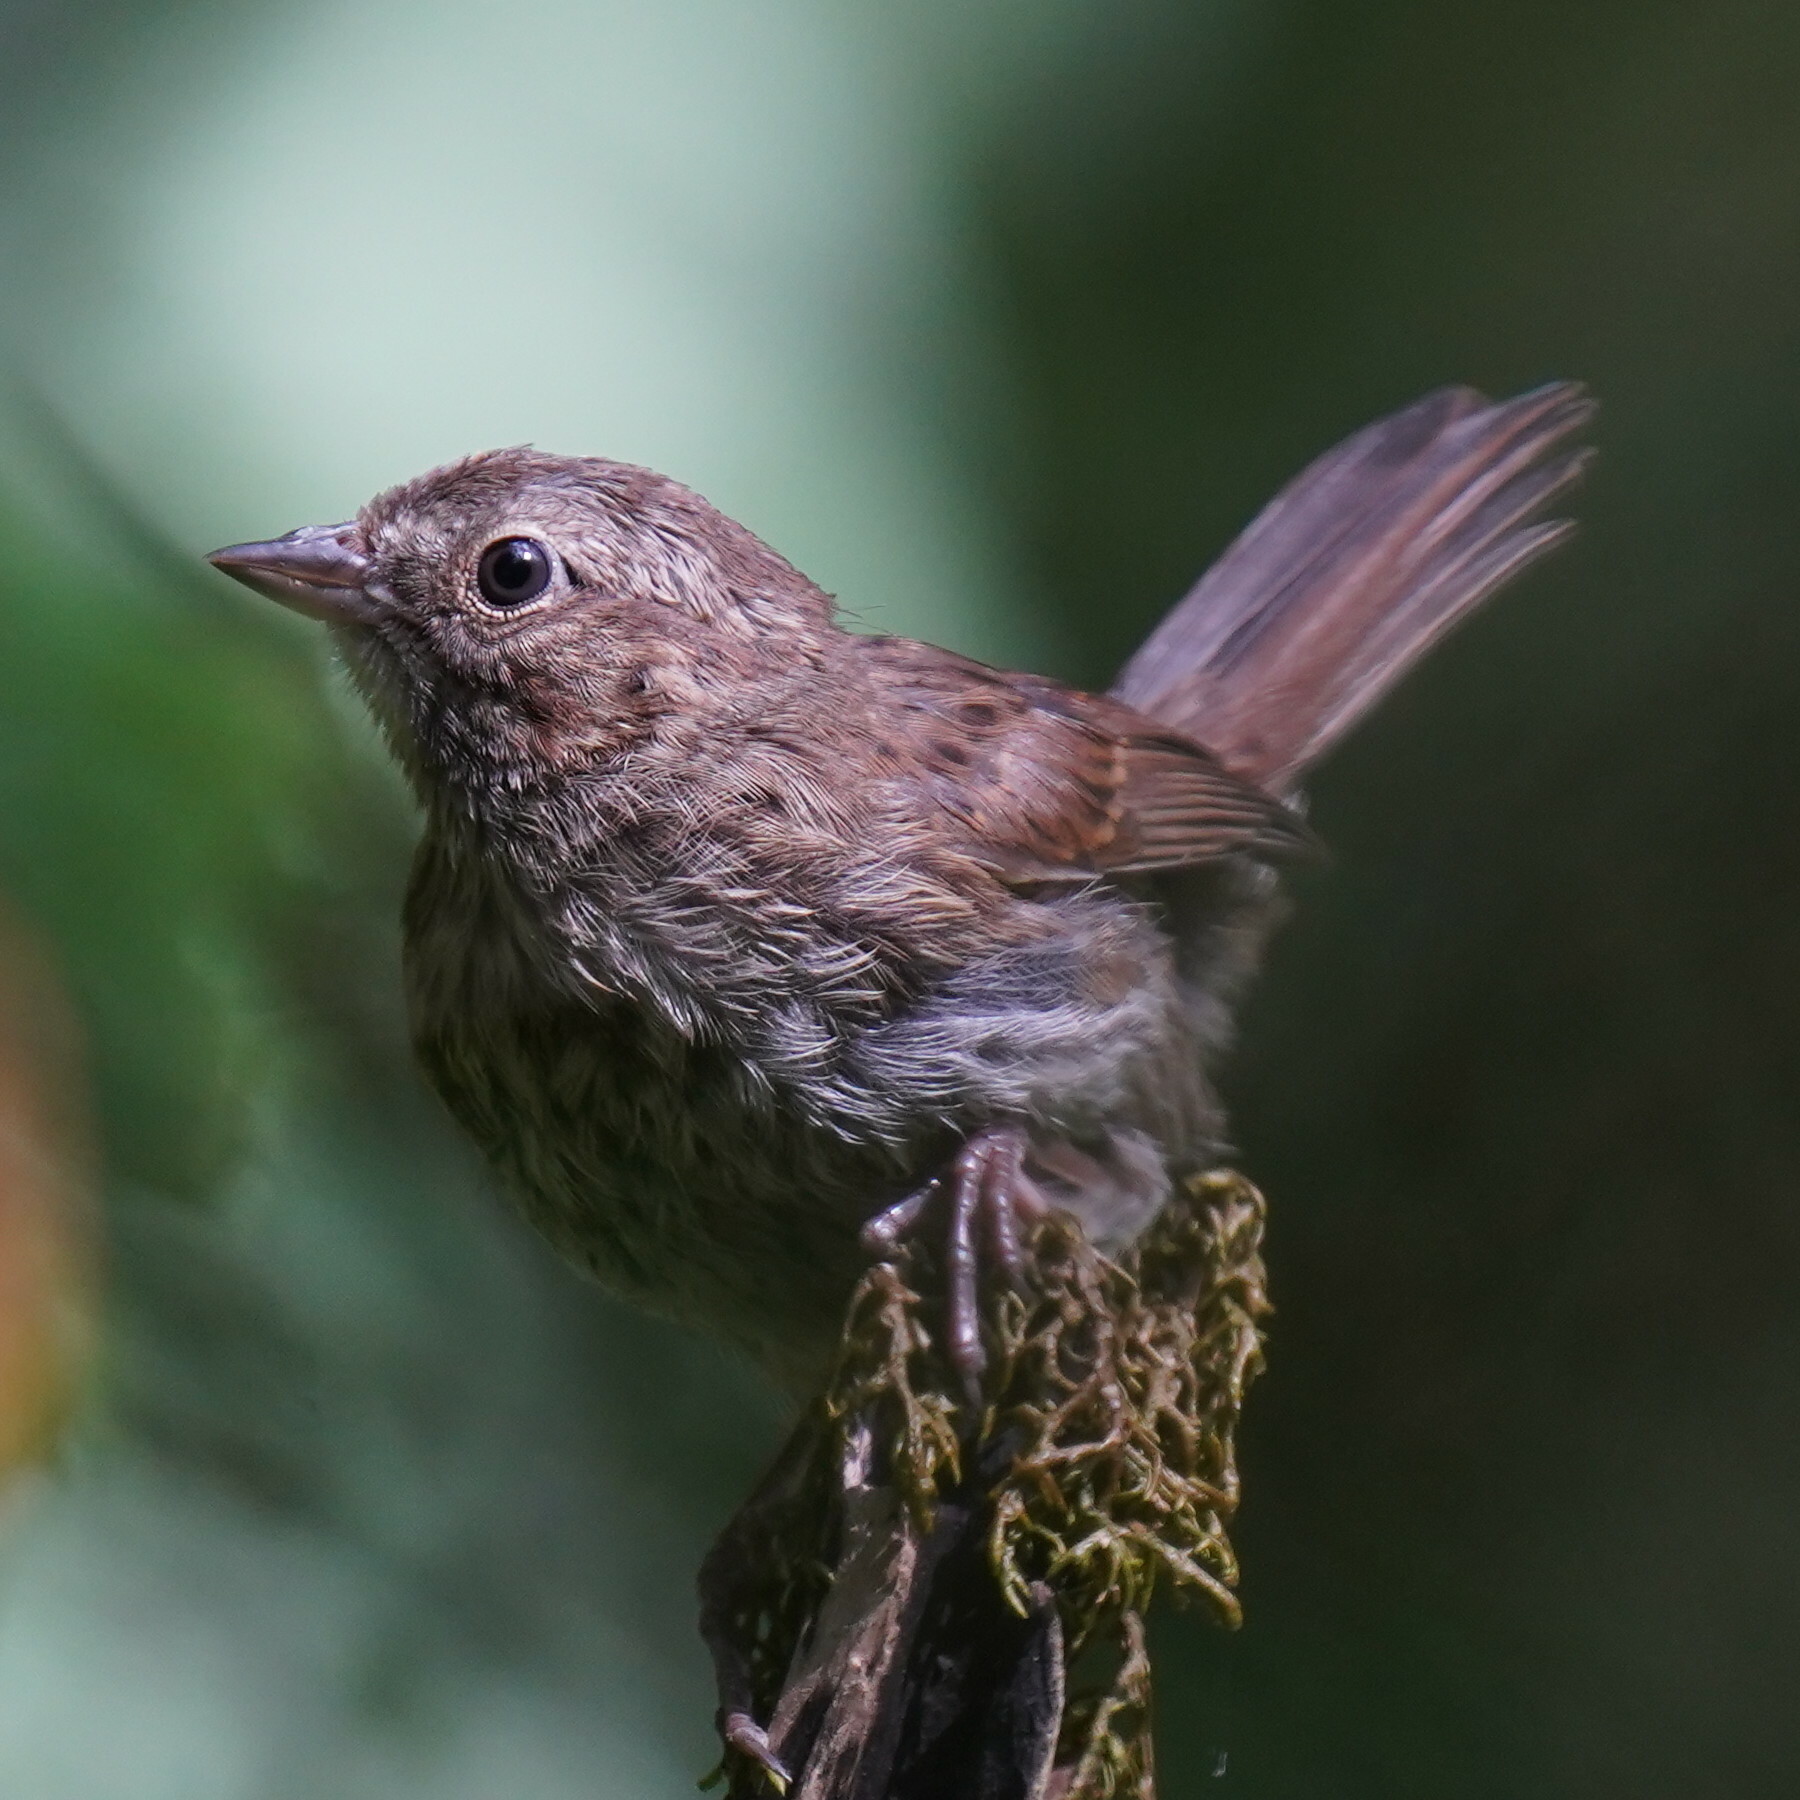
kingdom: Animalia
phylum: Chordata
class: Aves
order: Passeriformes
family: Passerellidae
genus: Melospiza
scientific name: Melospiza melodia
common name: Song sparrow
